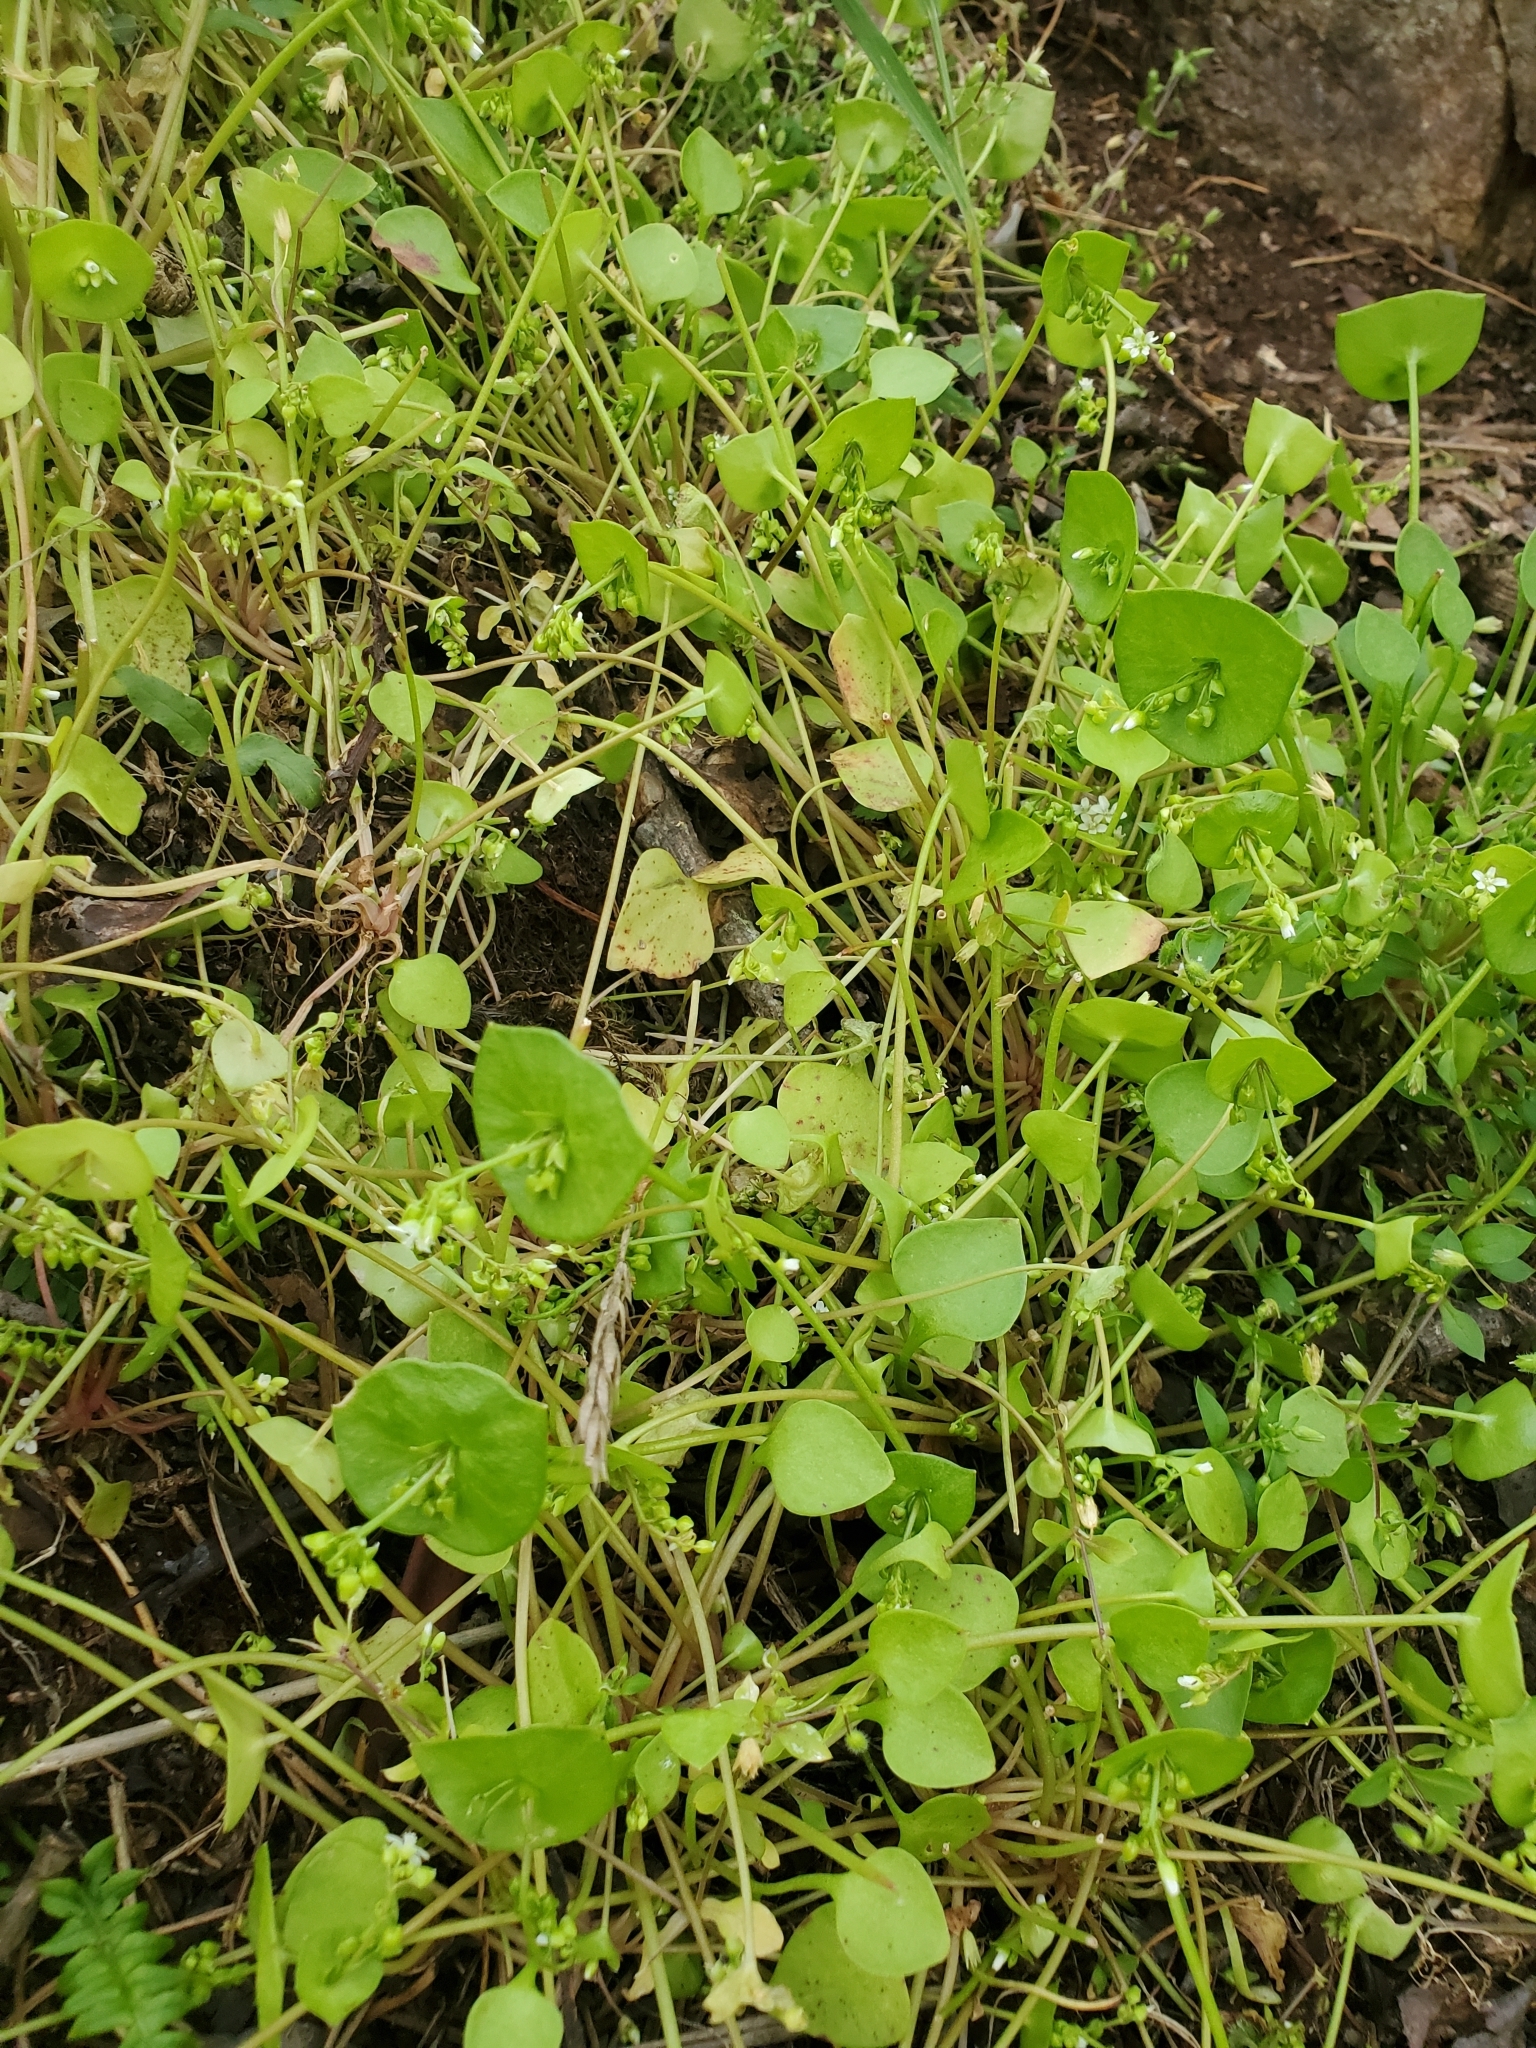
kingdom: Plantae
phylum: Tracheophyta
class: Magnoliopsida
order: Caryophyllales
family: Montiaceae
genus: Claytonia
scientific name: Claytonia perfoliata
